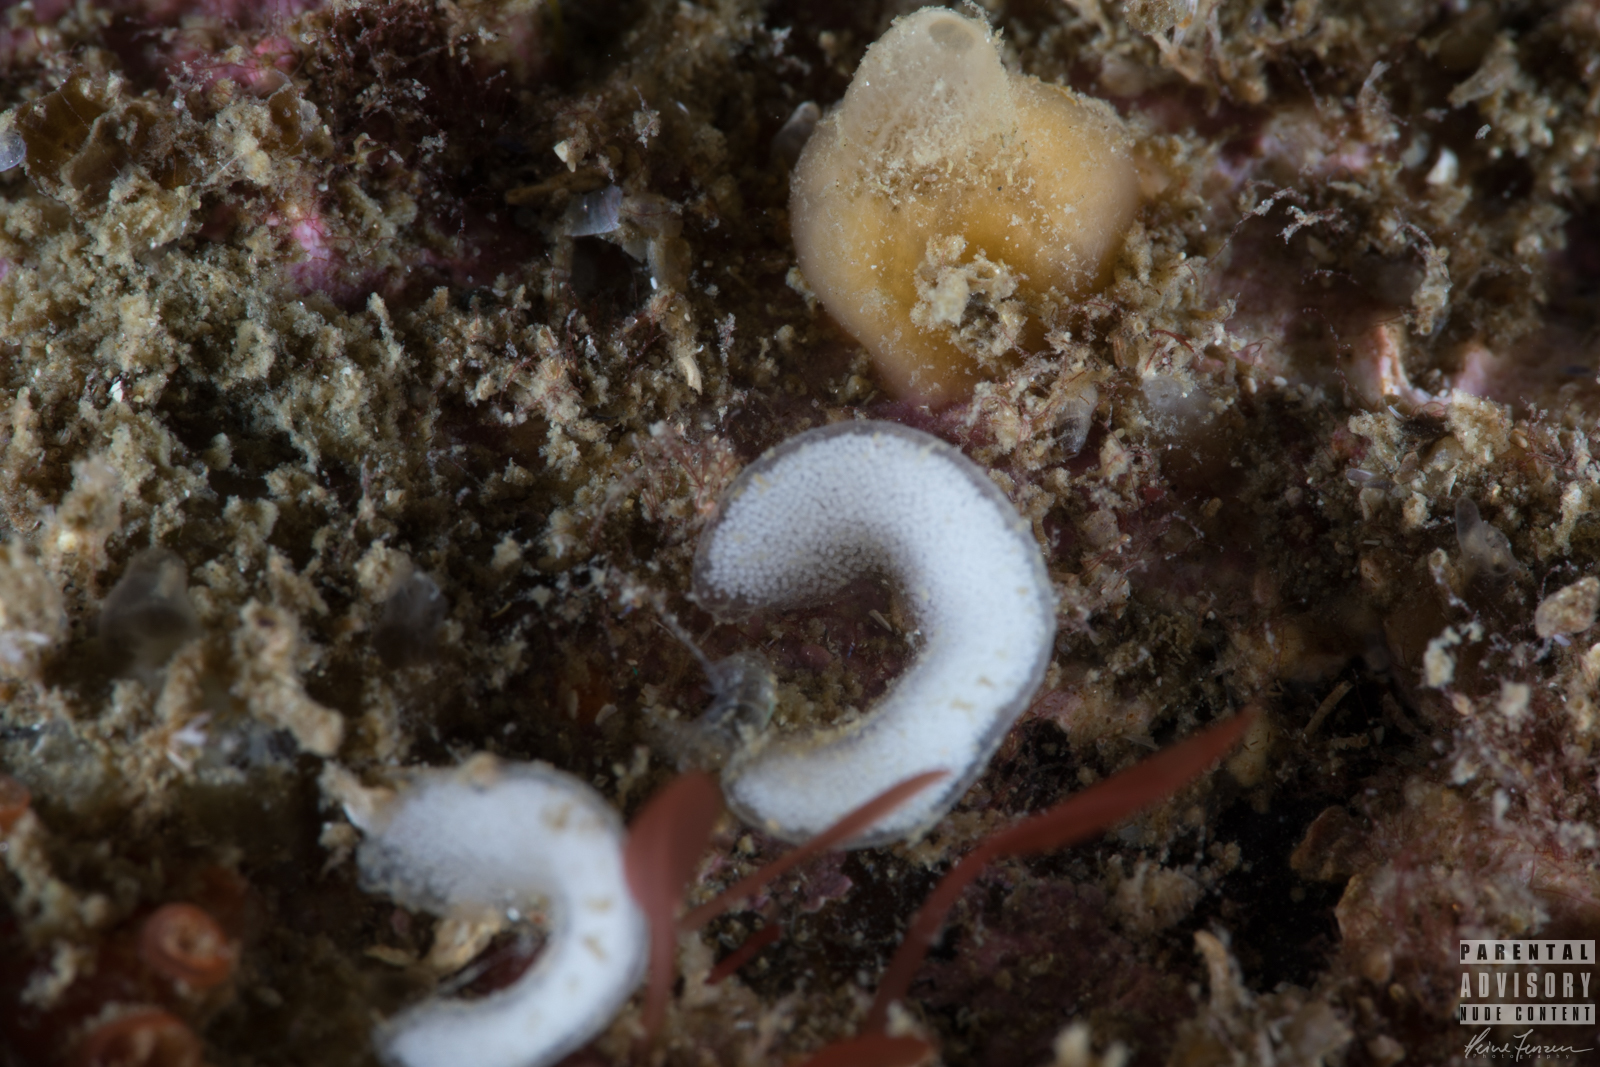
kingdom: Animalia
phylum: Mollusca
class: Gastropoda
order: Nudibranchia
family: Cadlinidae
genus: Aldisa
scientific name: Aldisa zetlandica
